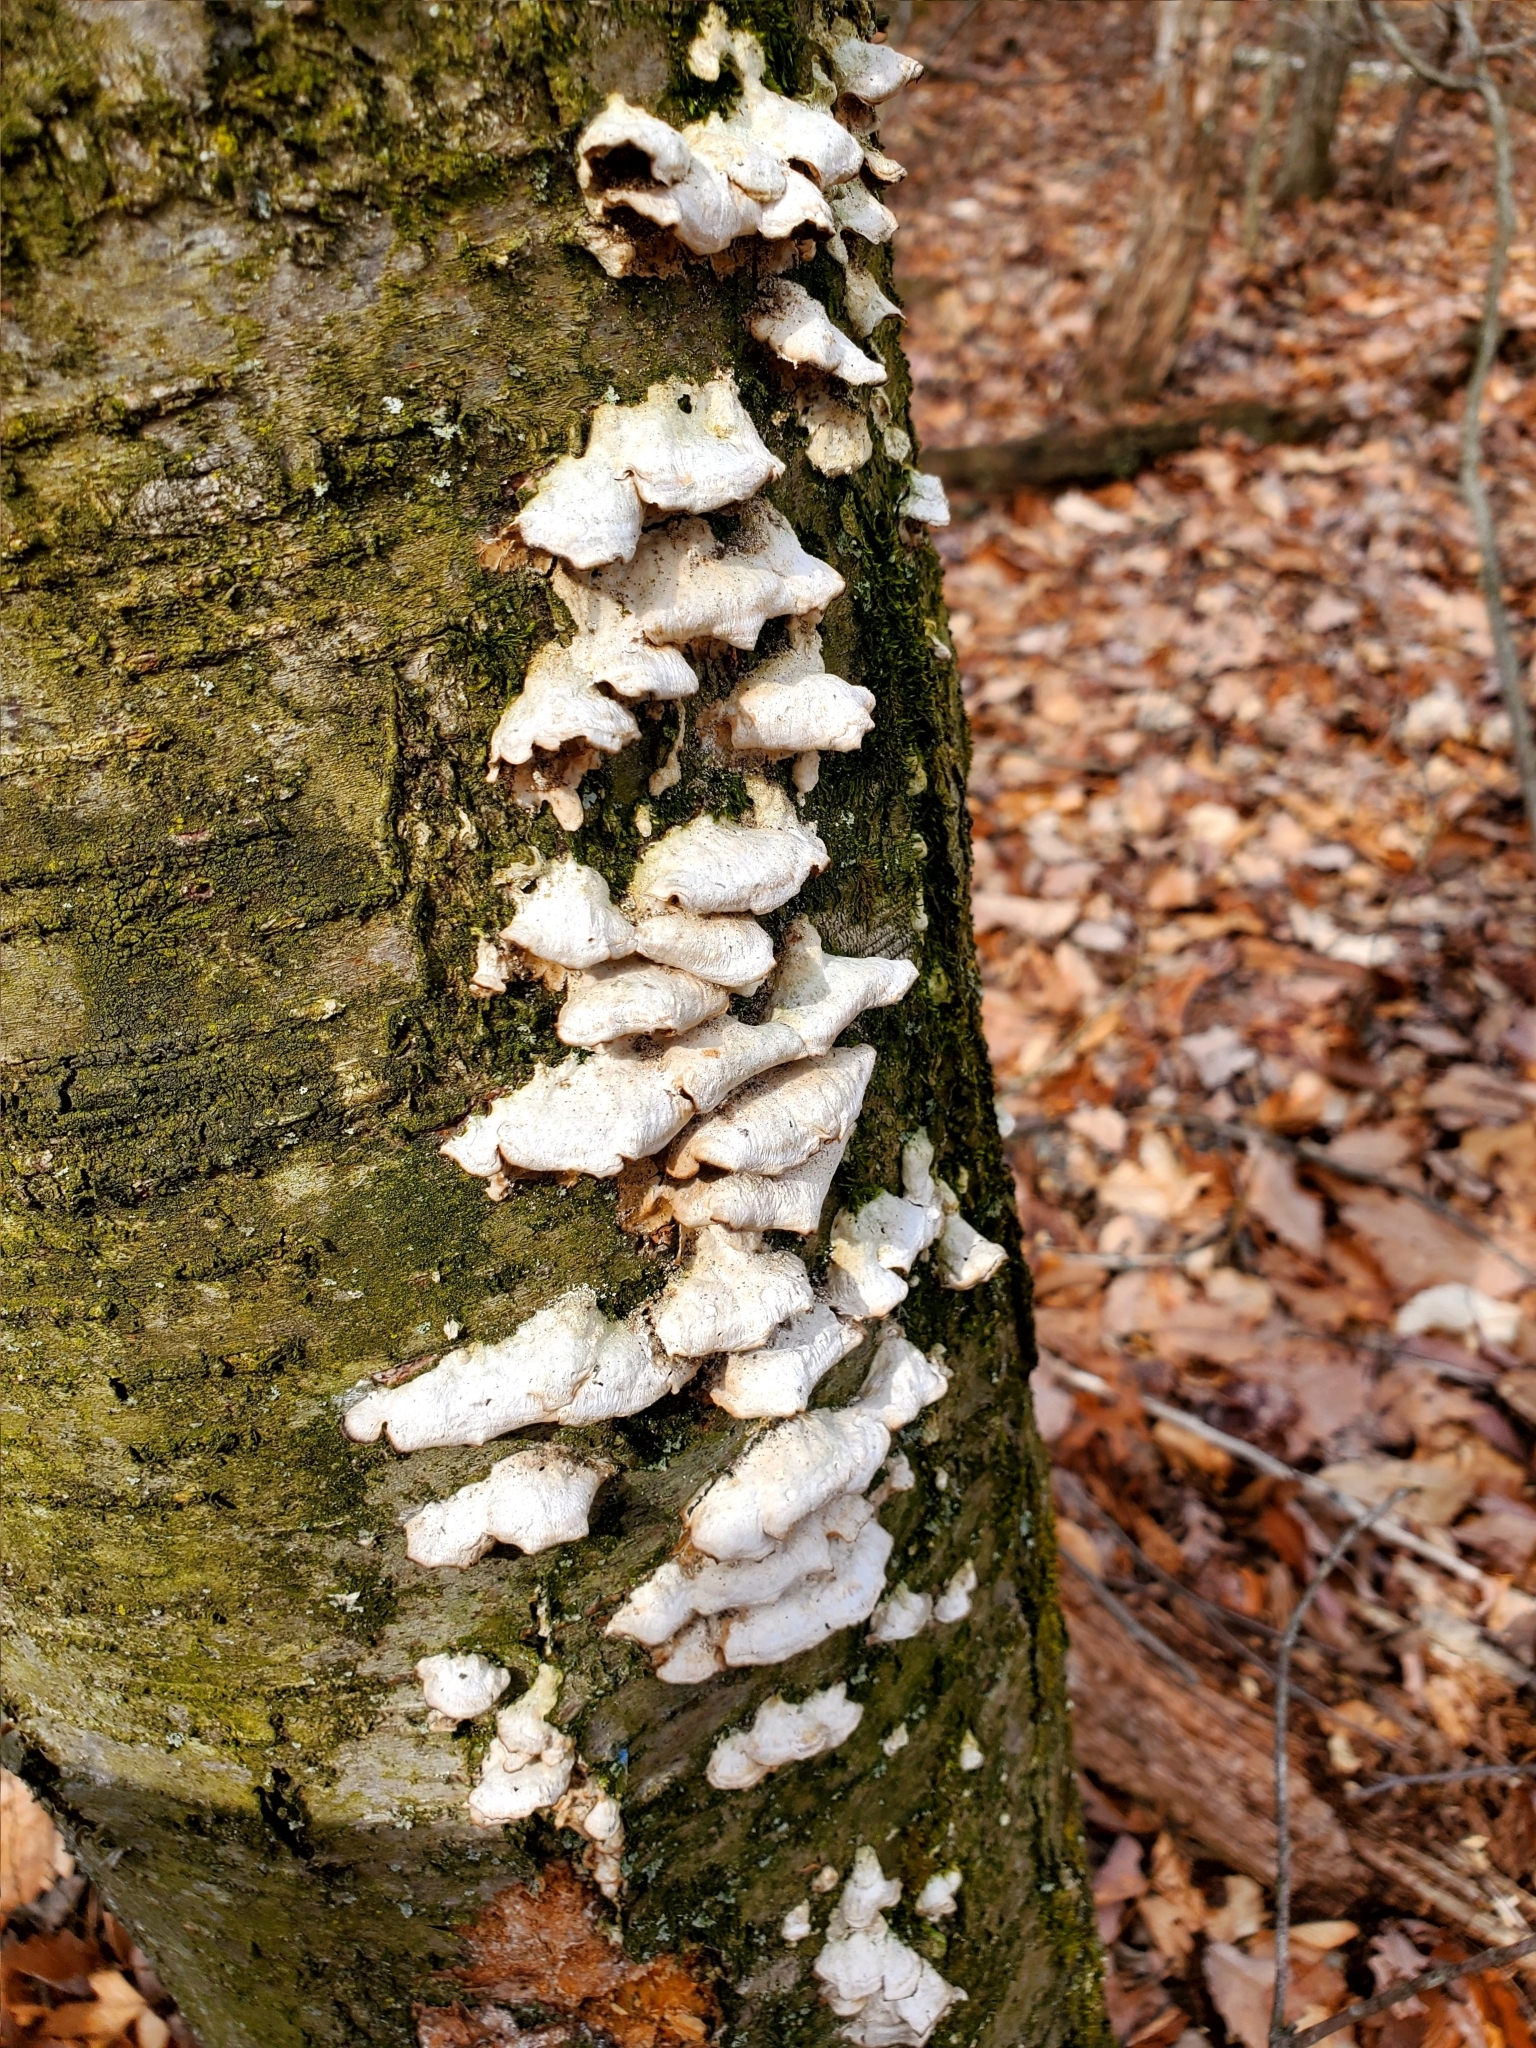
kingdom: Fungi
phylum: Basidiomycota
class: Agaricomycetes
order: Hymenochaetales
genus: Trichaptum
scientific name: Trichaptum biforme
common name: Violet-toothed polypore
